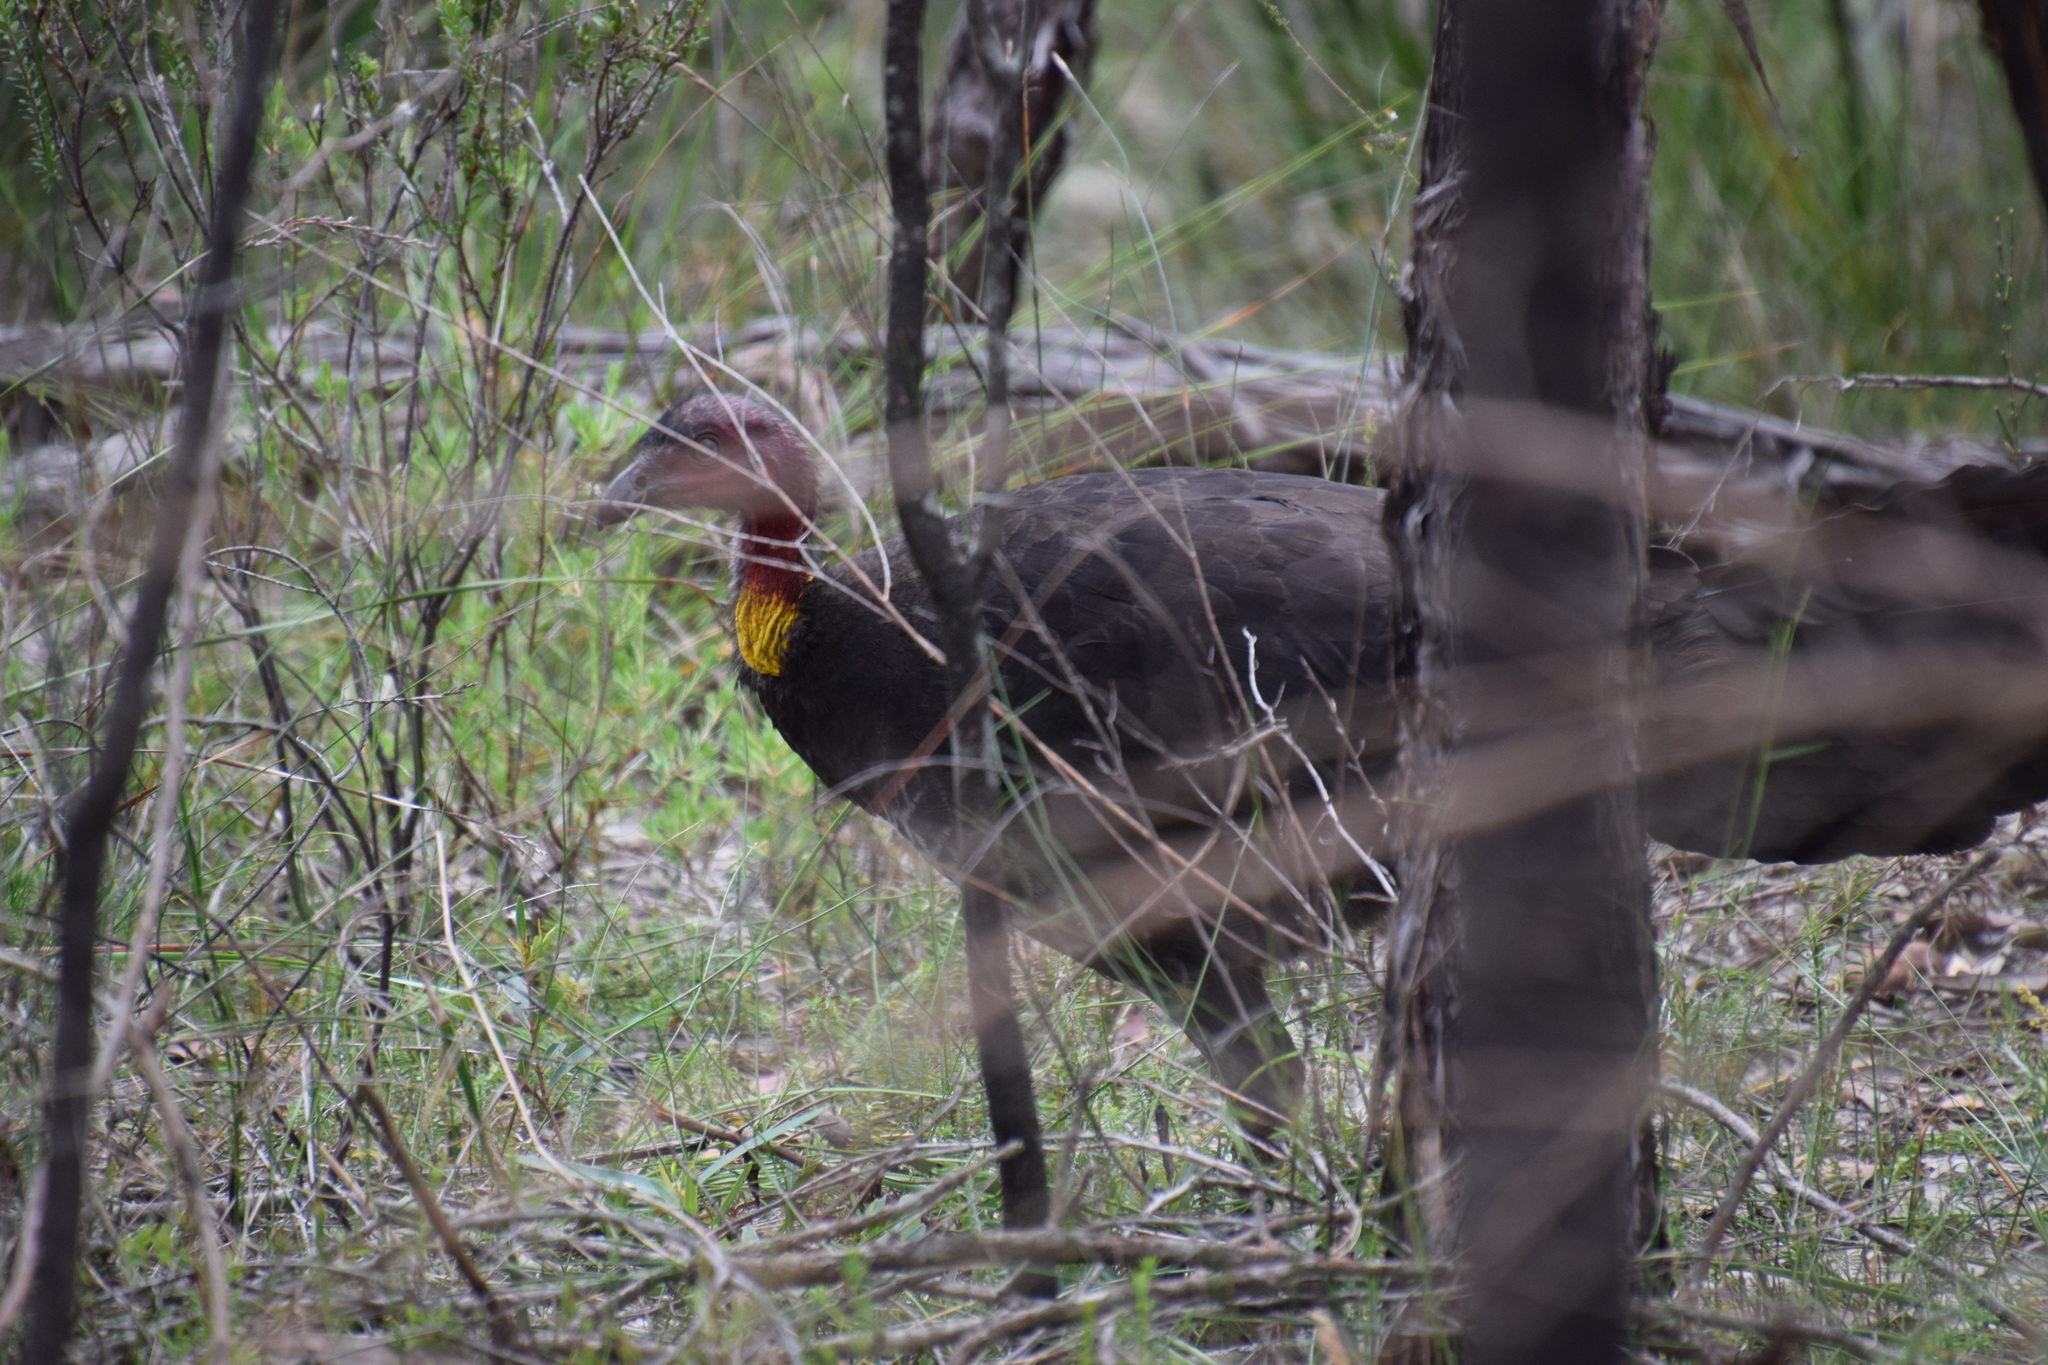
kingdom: Animalia
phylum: Chordata
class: Aves
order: Galliformes
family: Megapodiidae
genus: Alectura
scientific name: Alectura lathami
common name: Australian brushturkey
